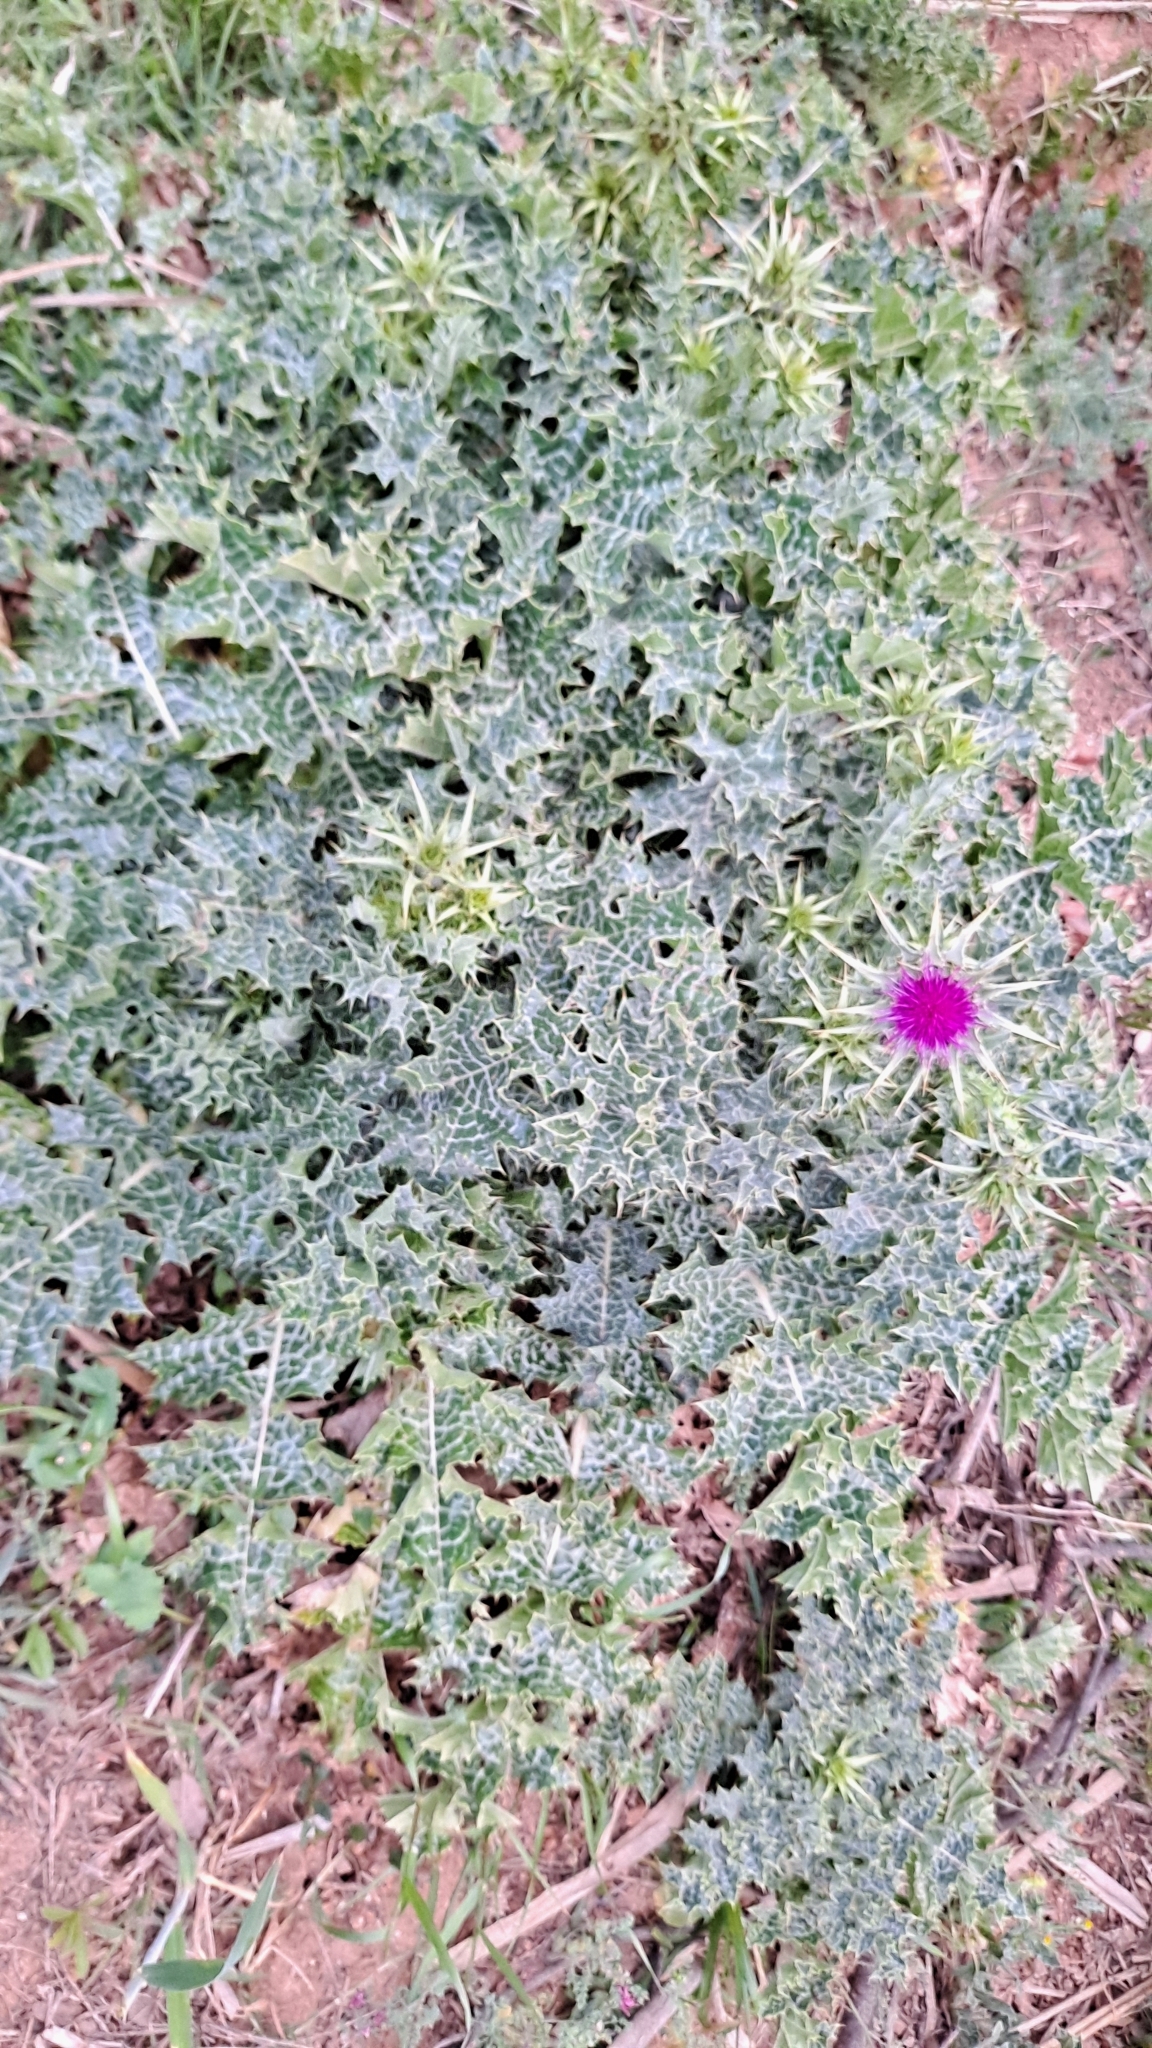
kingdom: Plantae
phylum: Tracheophyta
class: Magnoliopsida
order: Asterales
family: Asteraceae
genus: Silybum
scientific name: Silybum marianum
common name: Milk thistle
